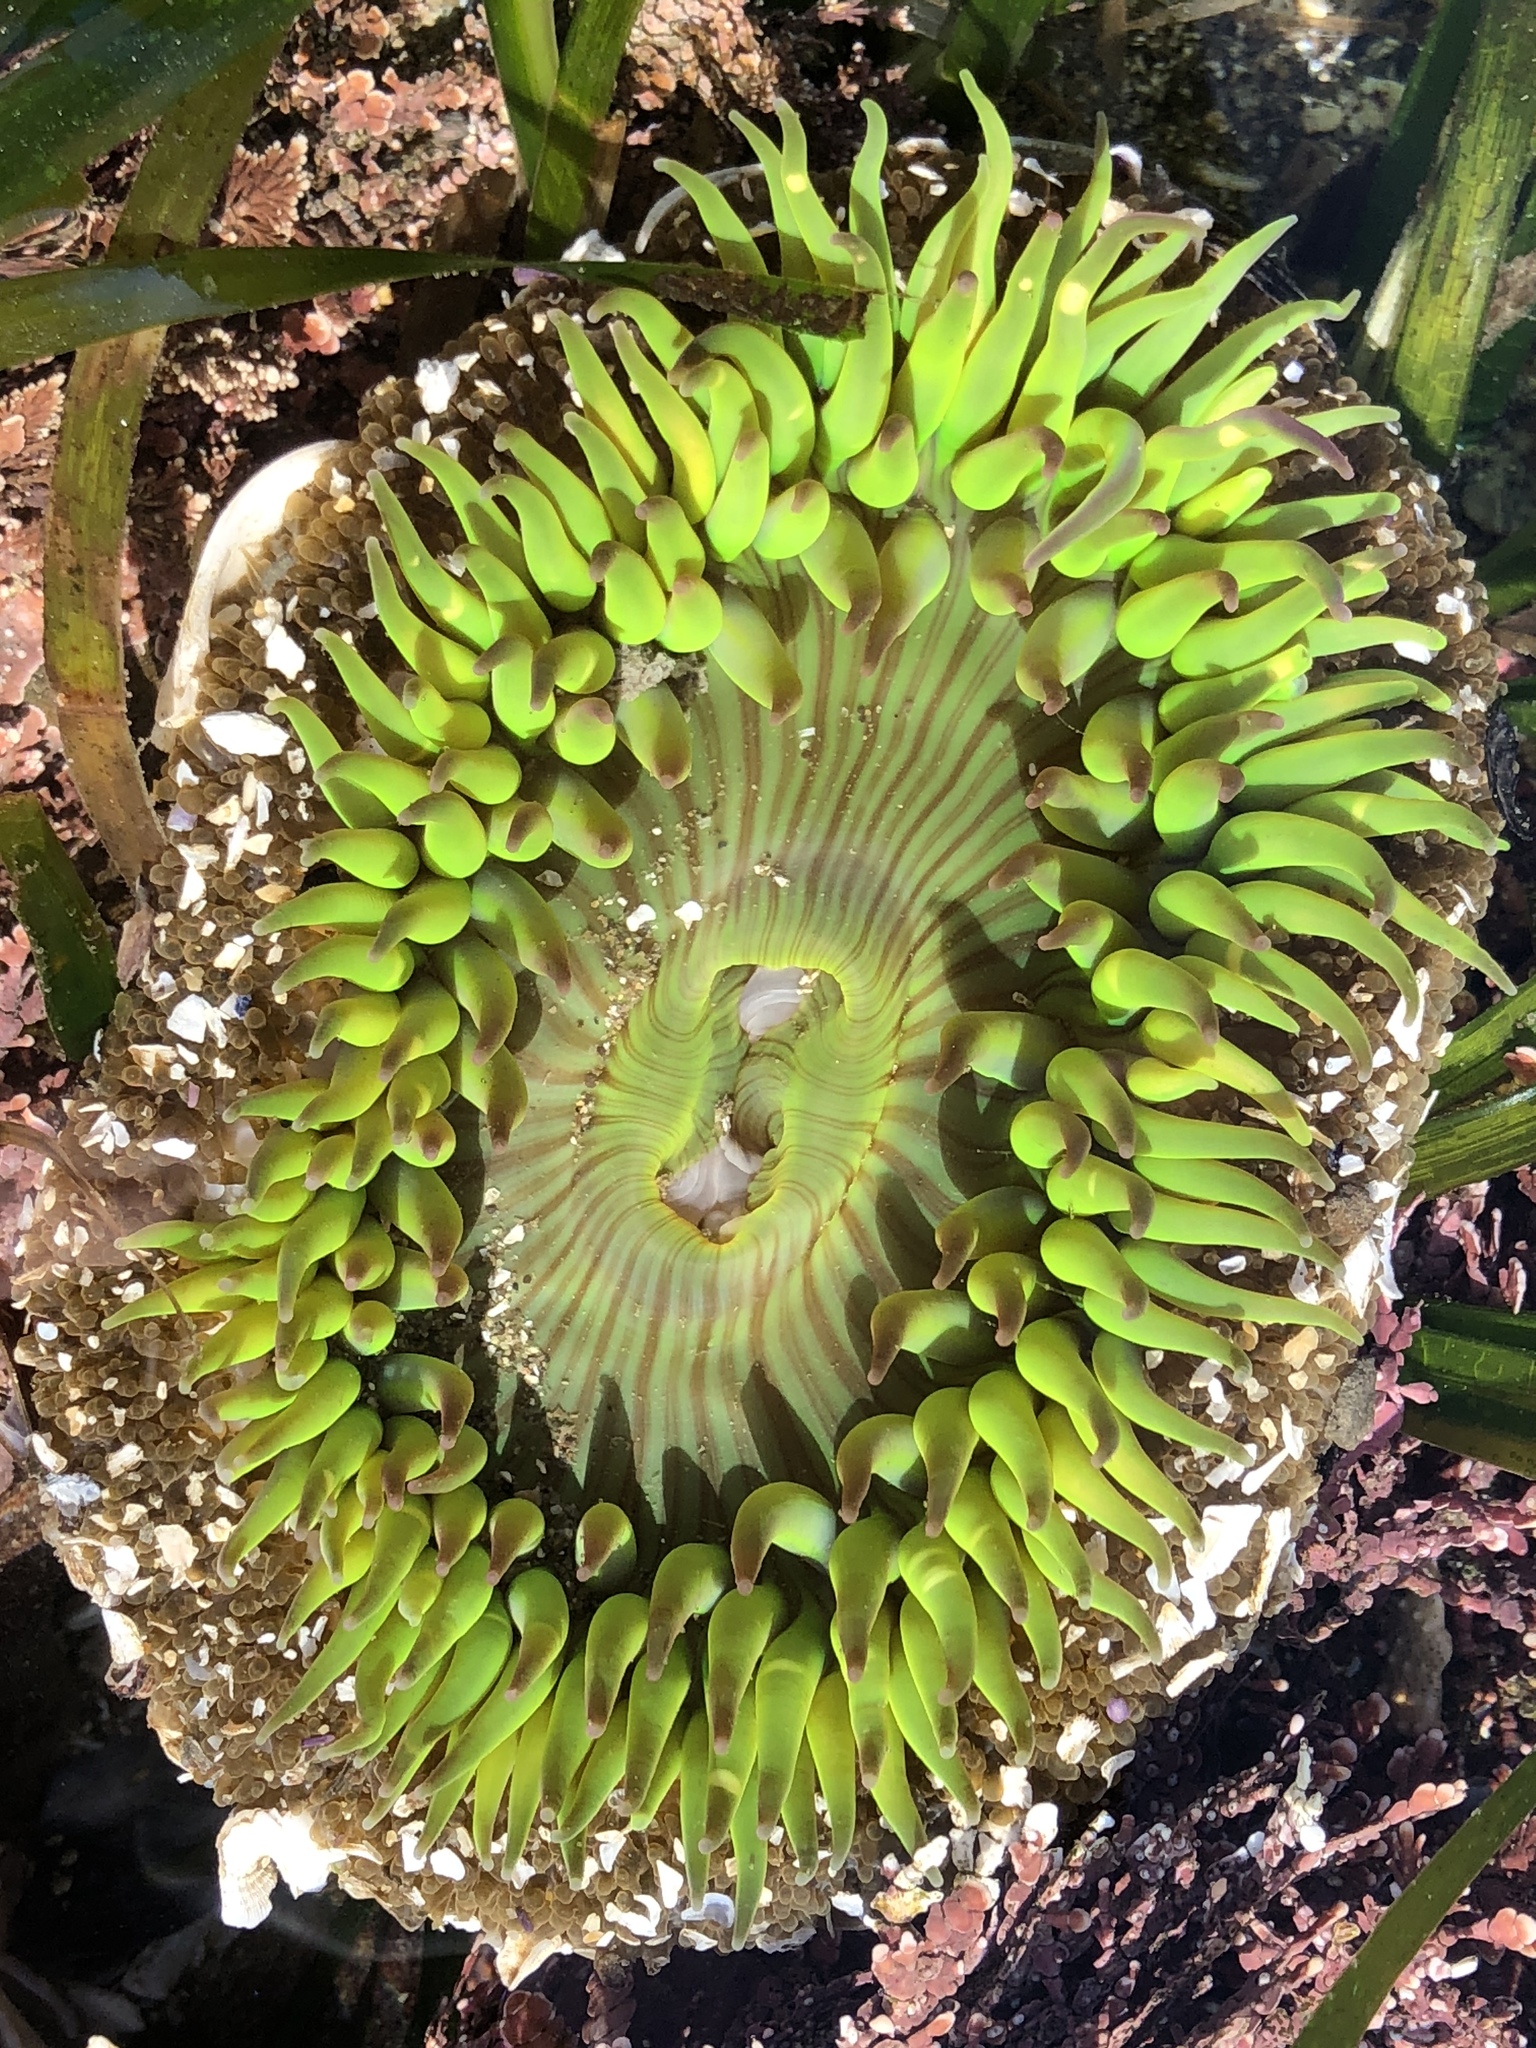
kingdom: Animalia
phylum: Cnidaria
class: Anthozoa
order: Actiniaria
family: Actiniidae
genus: Anthopleura
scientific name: Anthopleura sola
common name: Sun anemone
